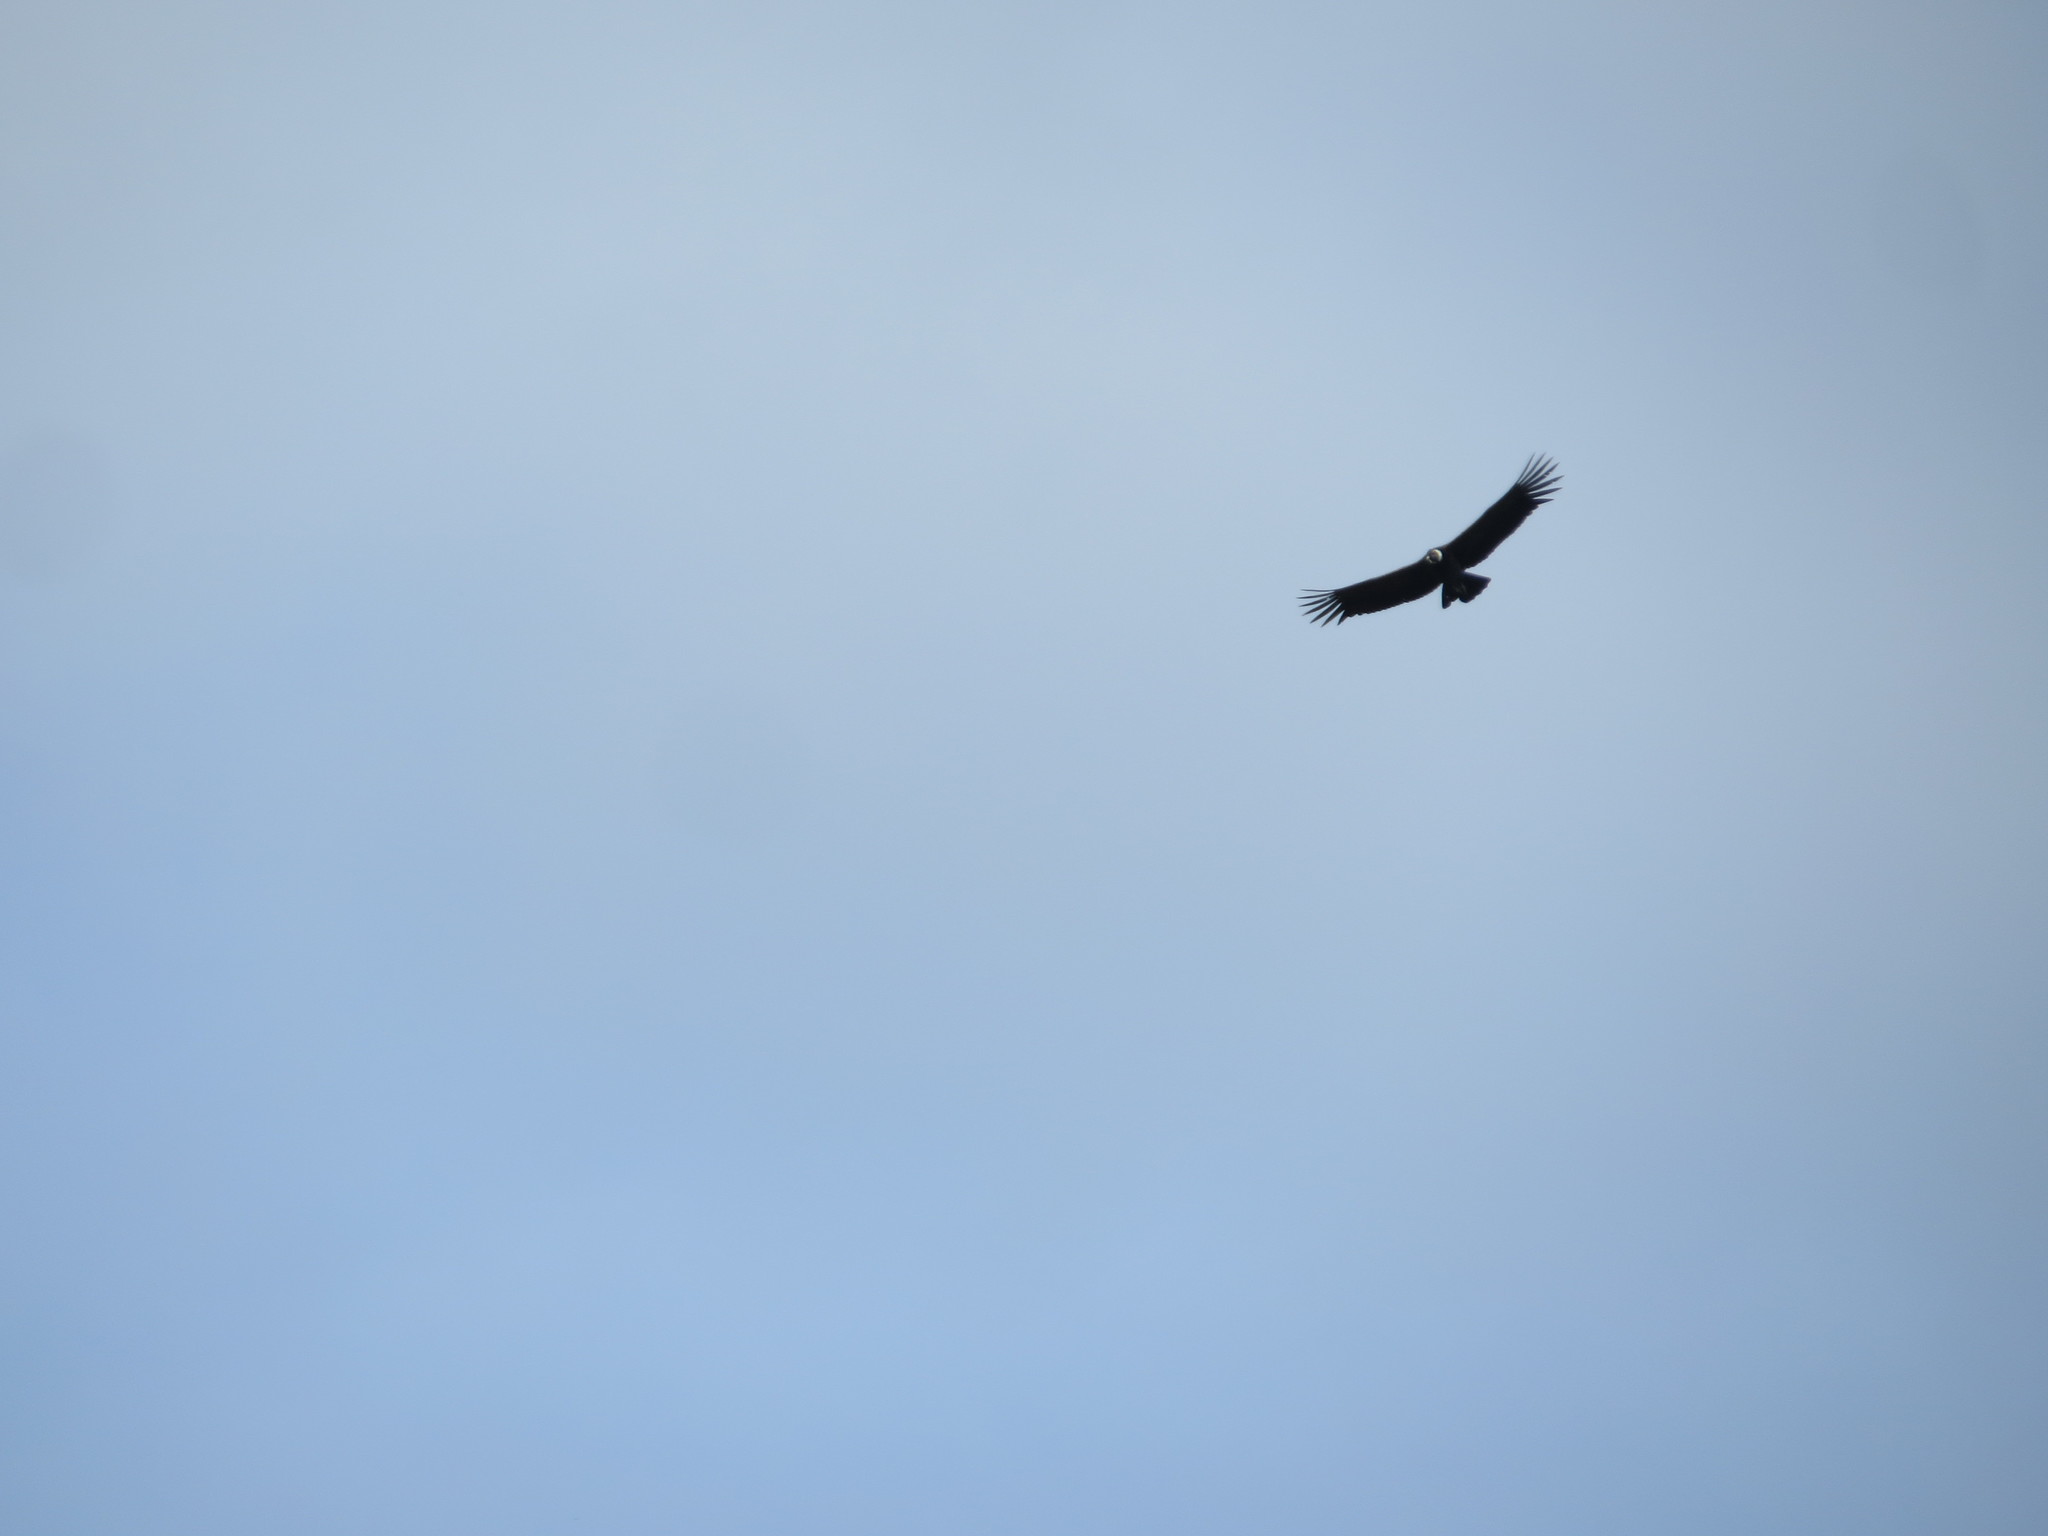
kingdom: Animalia
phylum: Chordata
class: Aves
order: Accipitriformes
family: Cathartidae
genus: Vultur
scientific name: Vultur gryphus
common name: Andean condor
